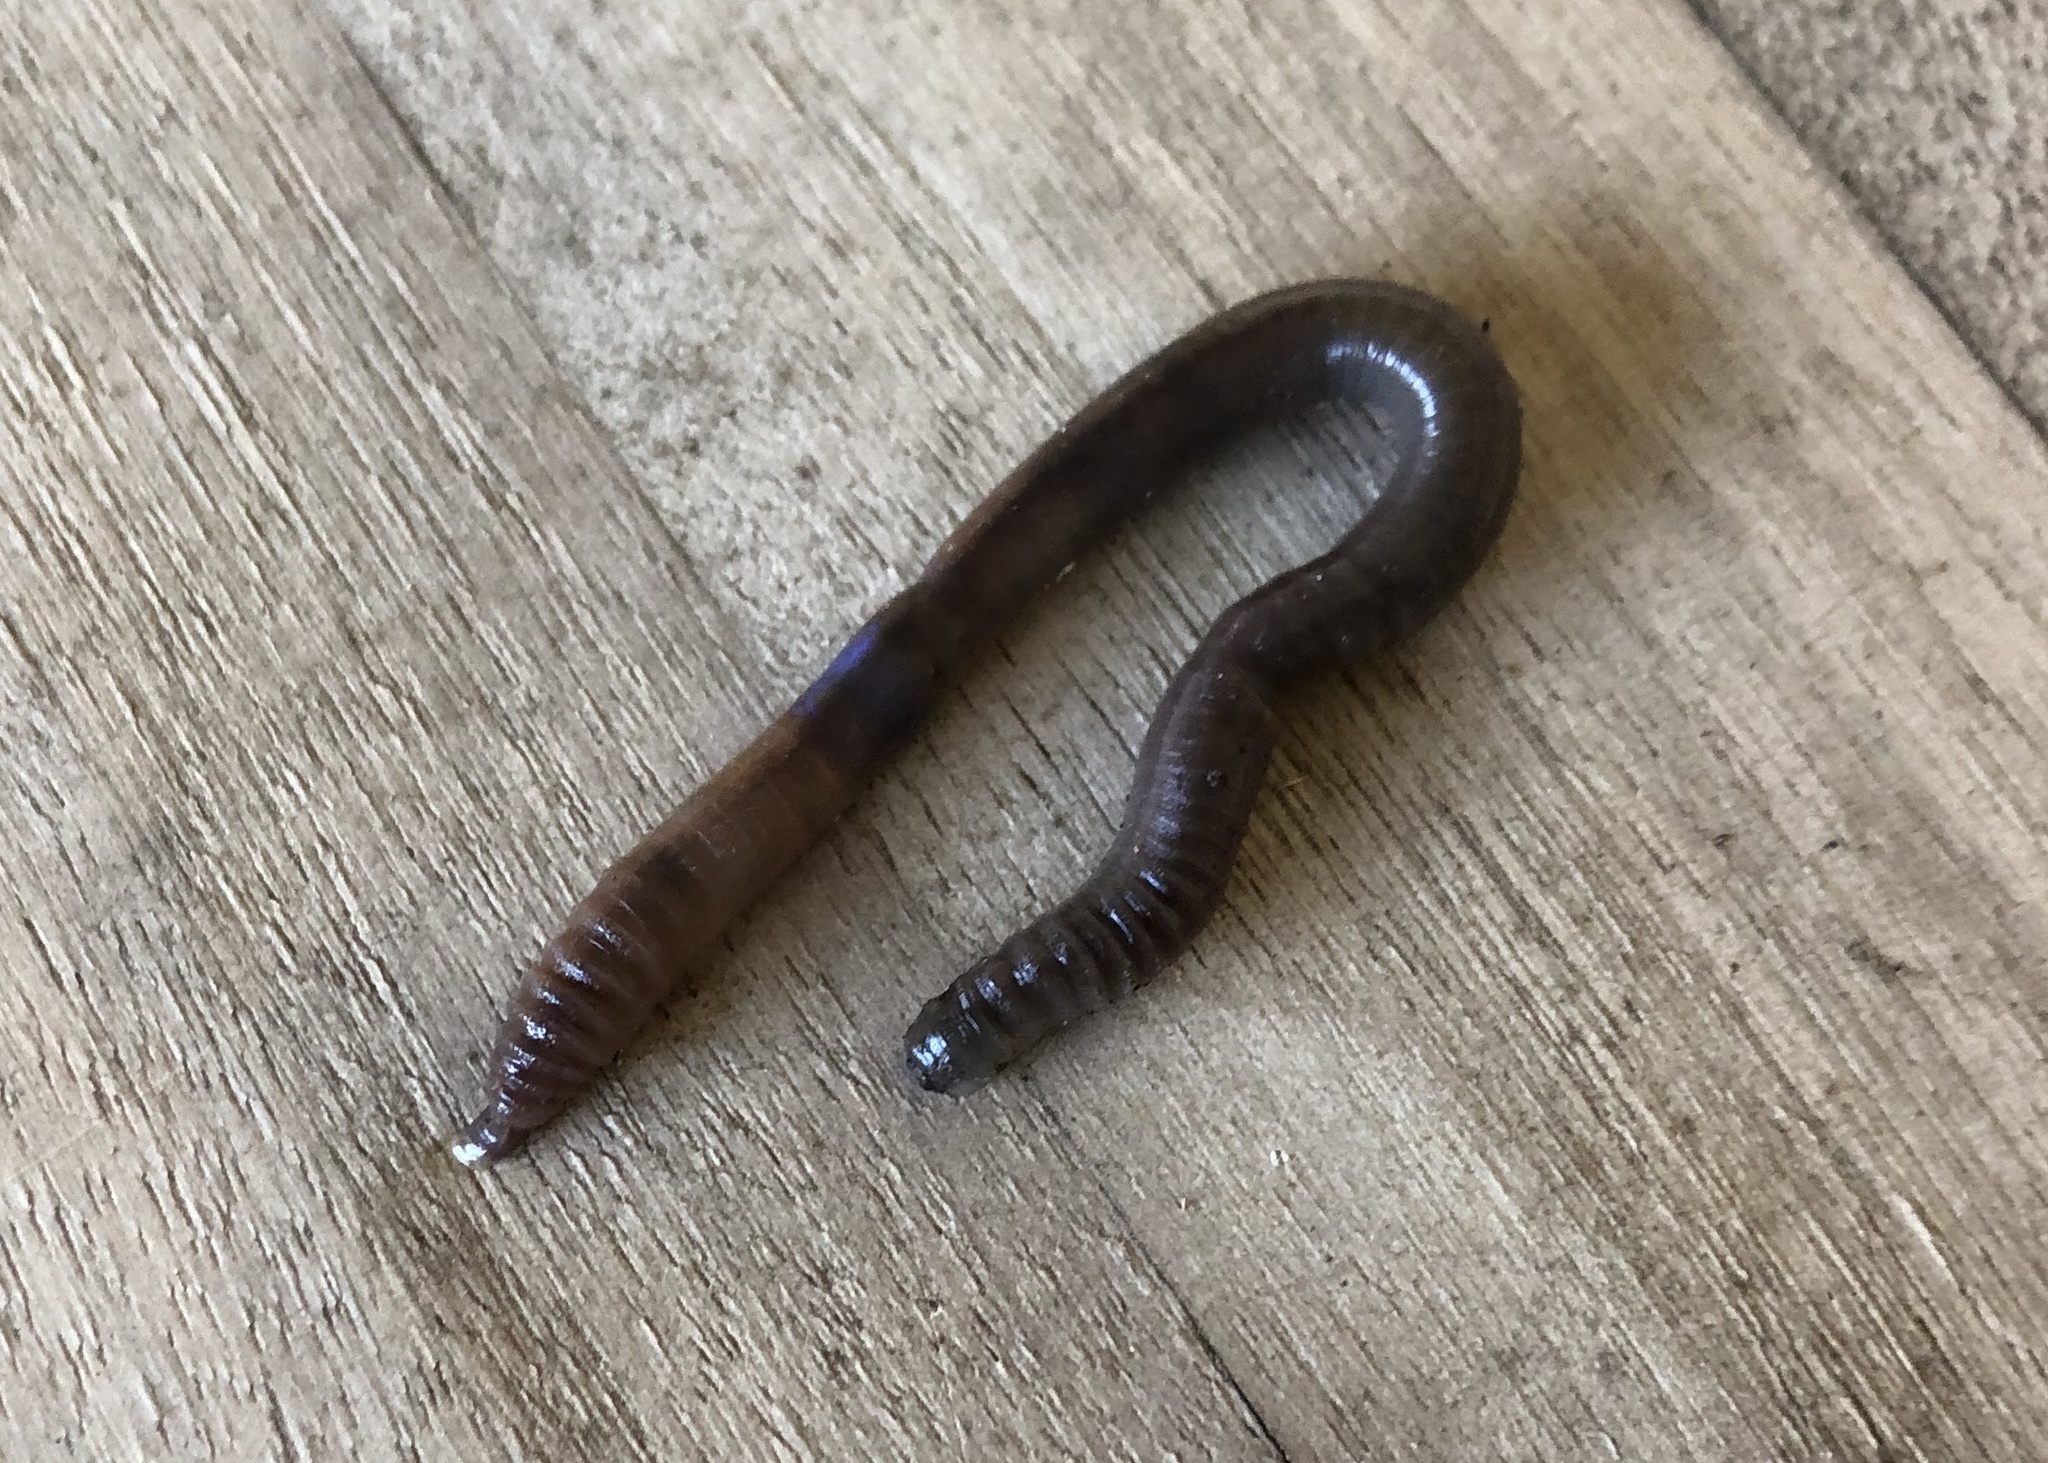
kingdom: Animalia
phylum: Annelida
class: Clitellata
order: Crassiclitellata
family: Lumbricidae
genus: Lumbricus
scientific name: Lumbricus terrestris
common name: Common earthworm
